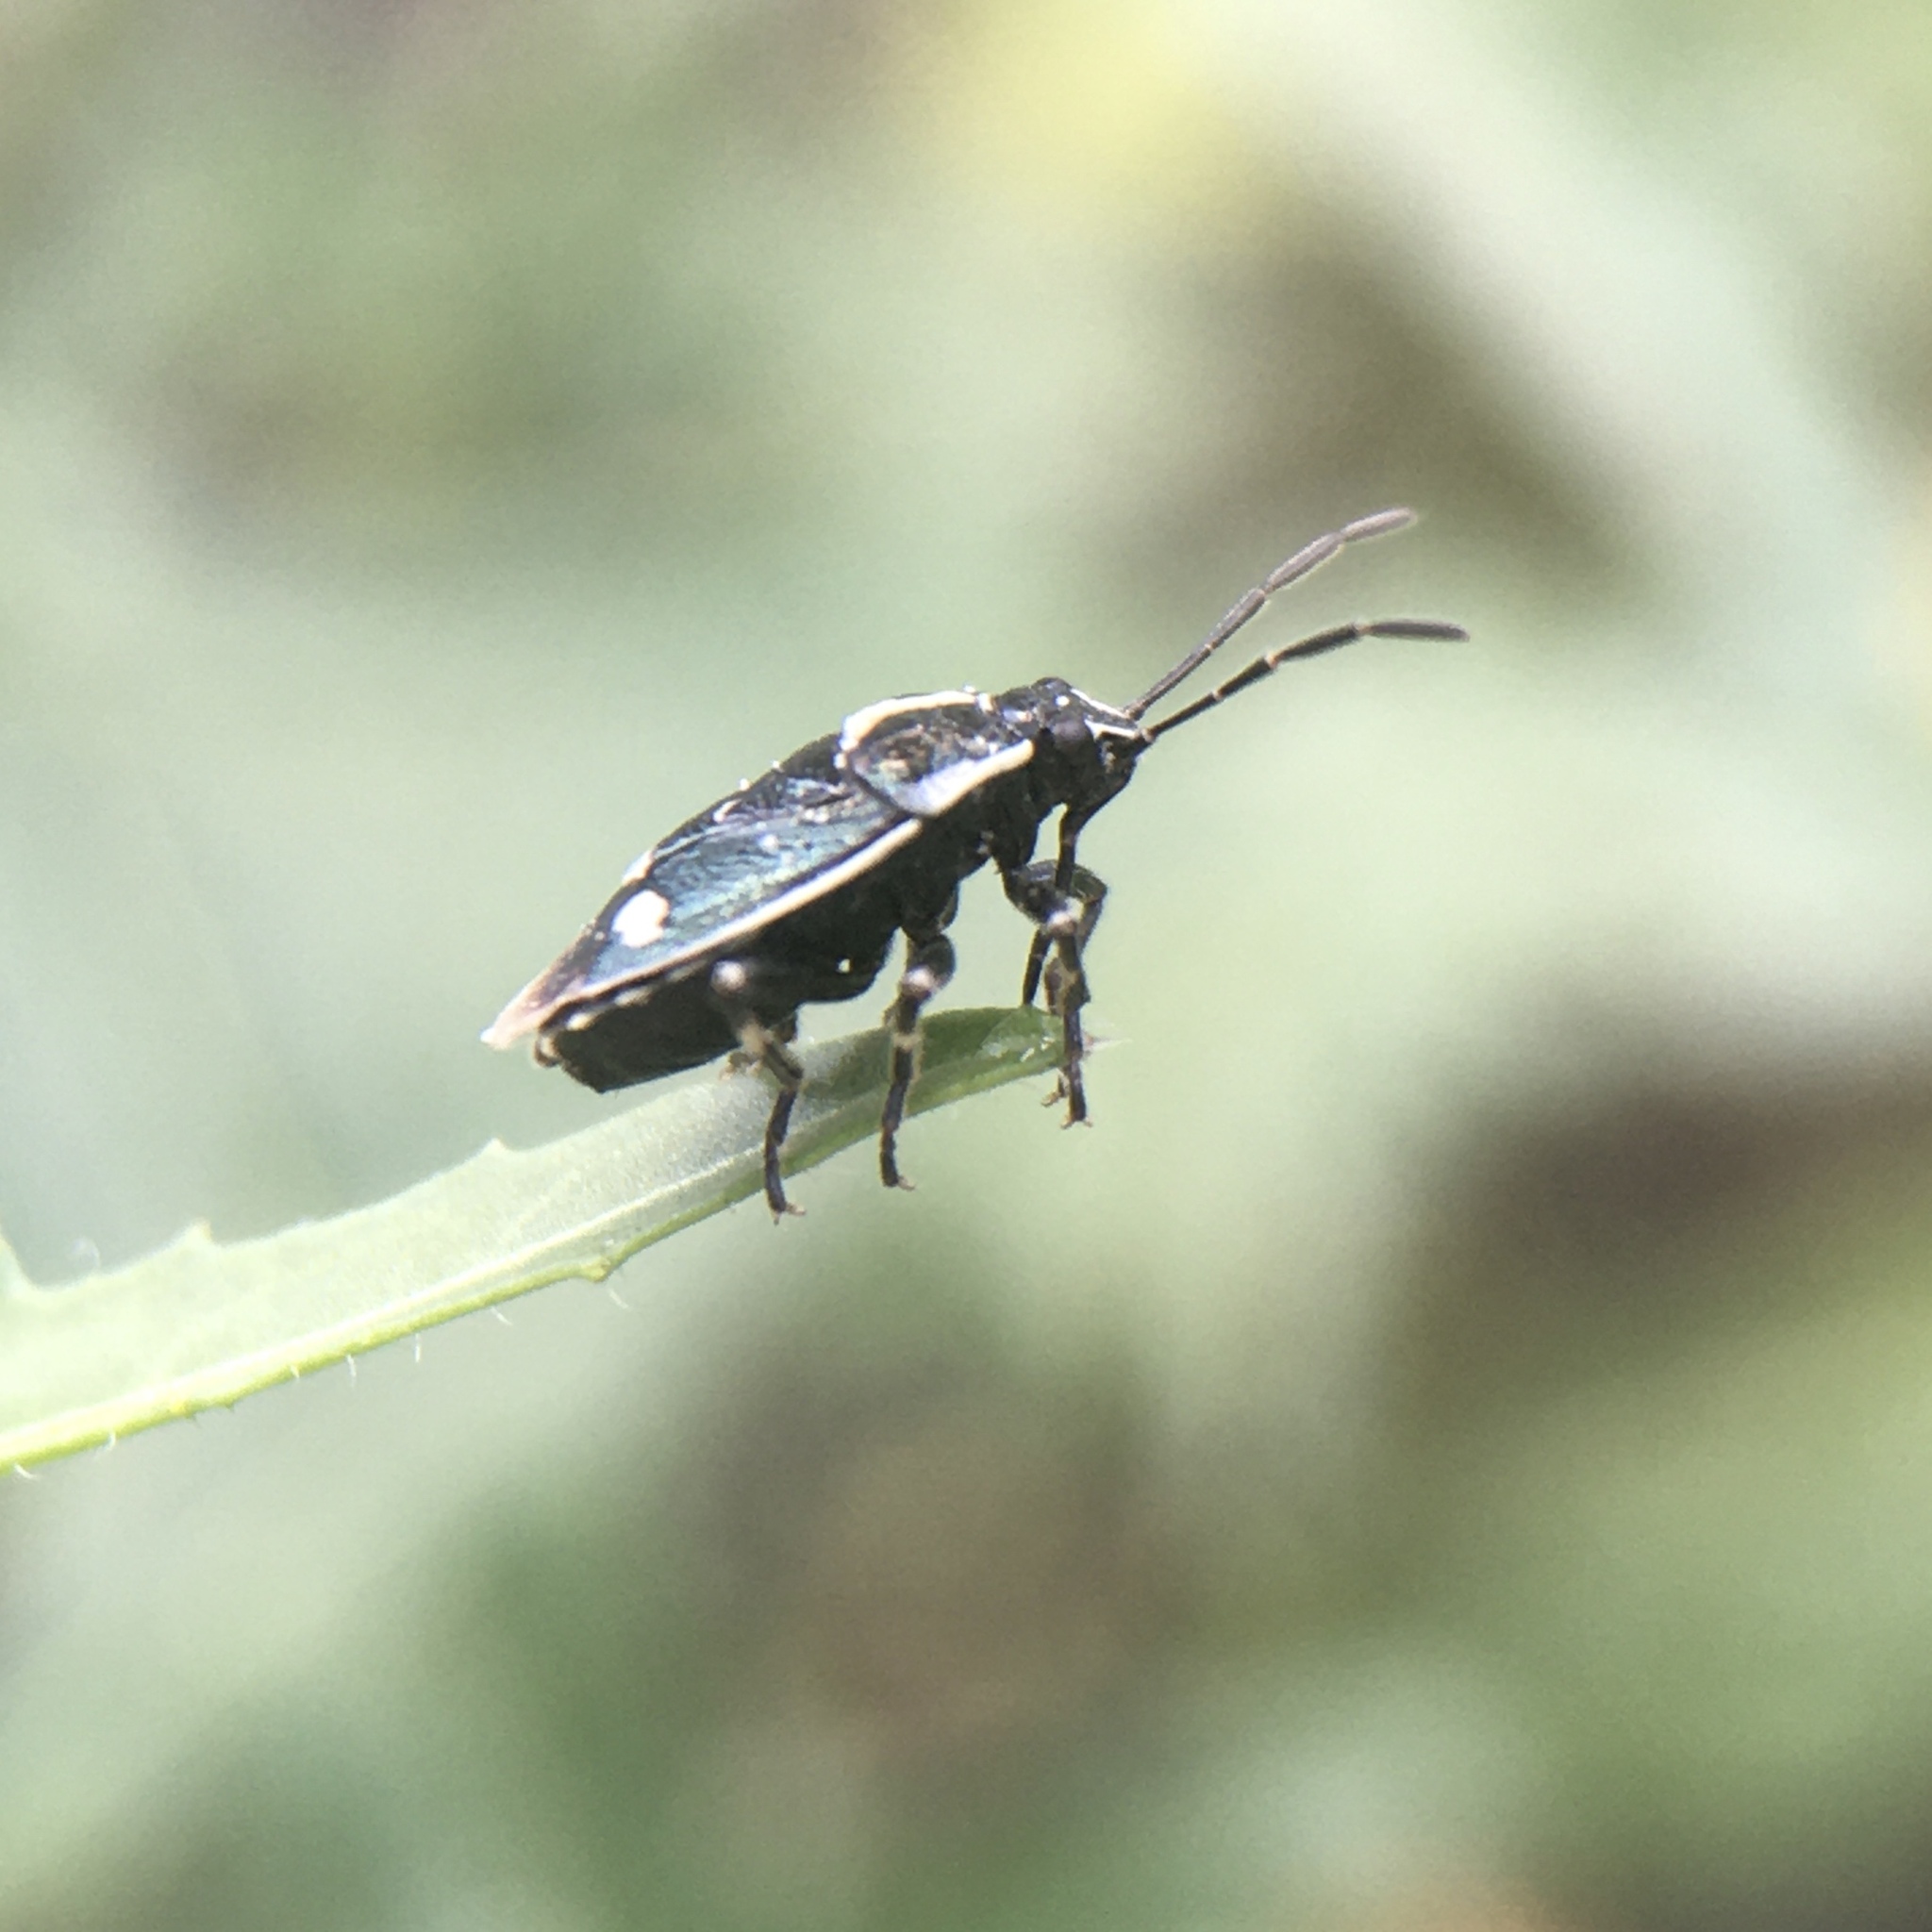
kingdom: Animalia
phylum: Arthropoda
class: Insecta
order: Hemiptera
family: Pentatomidae
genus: Eurydema
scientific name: Eurydema oleracea
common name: Cabbage bug
